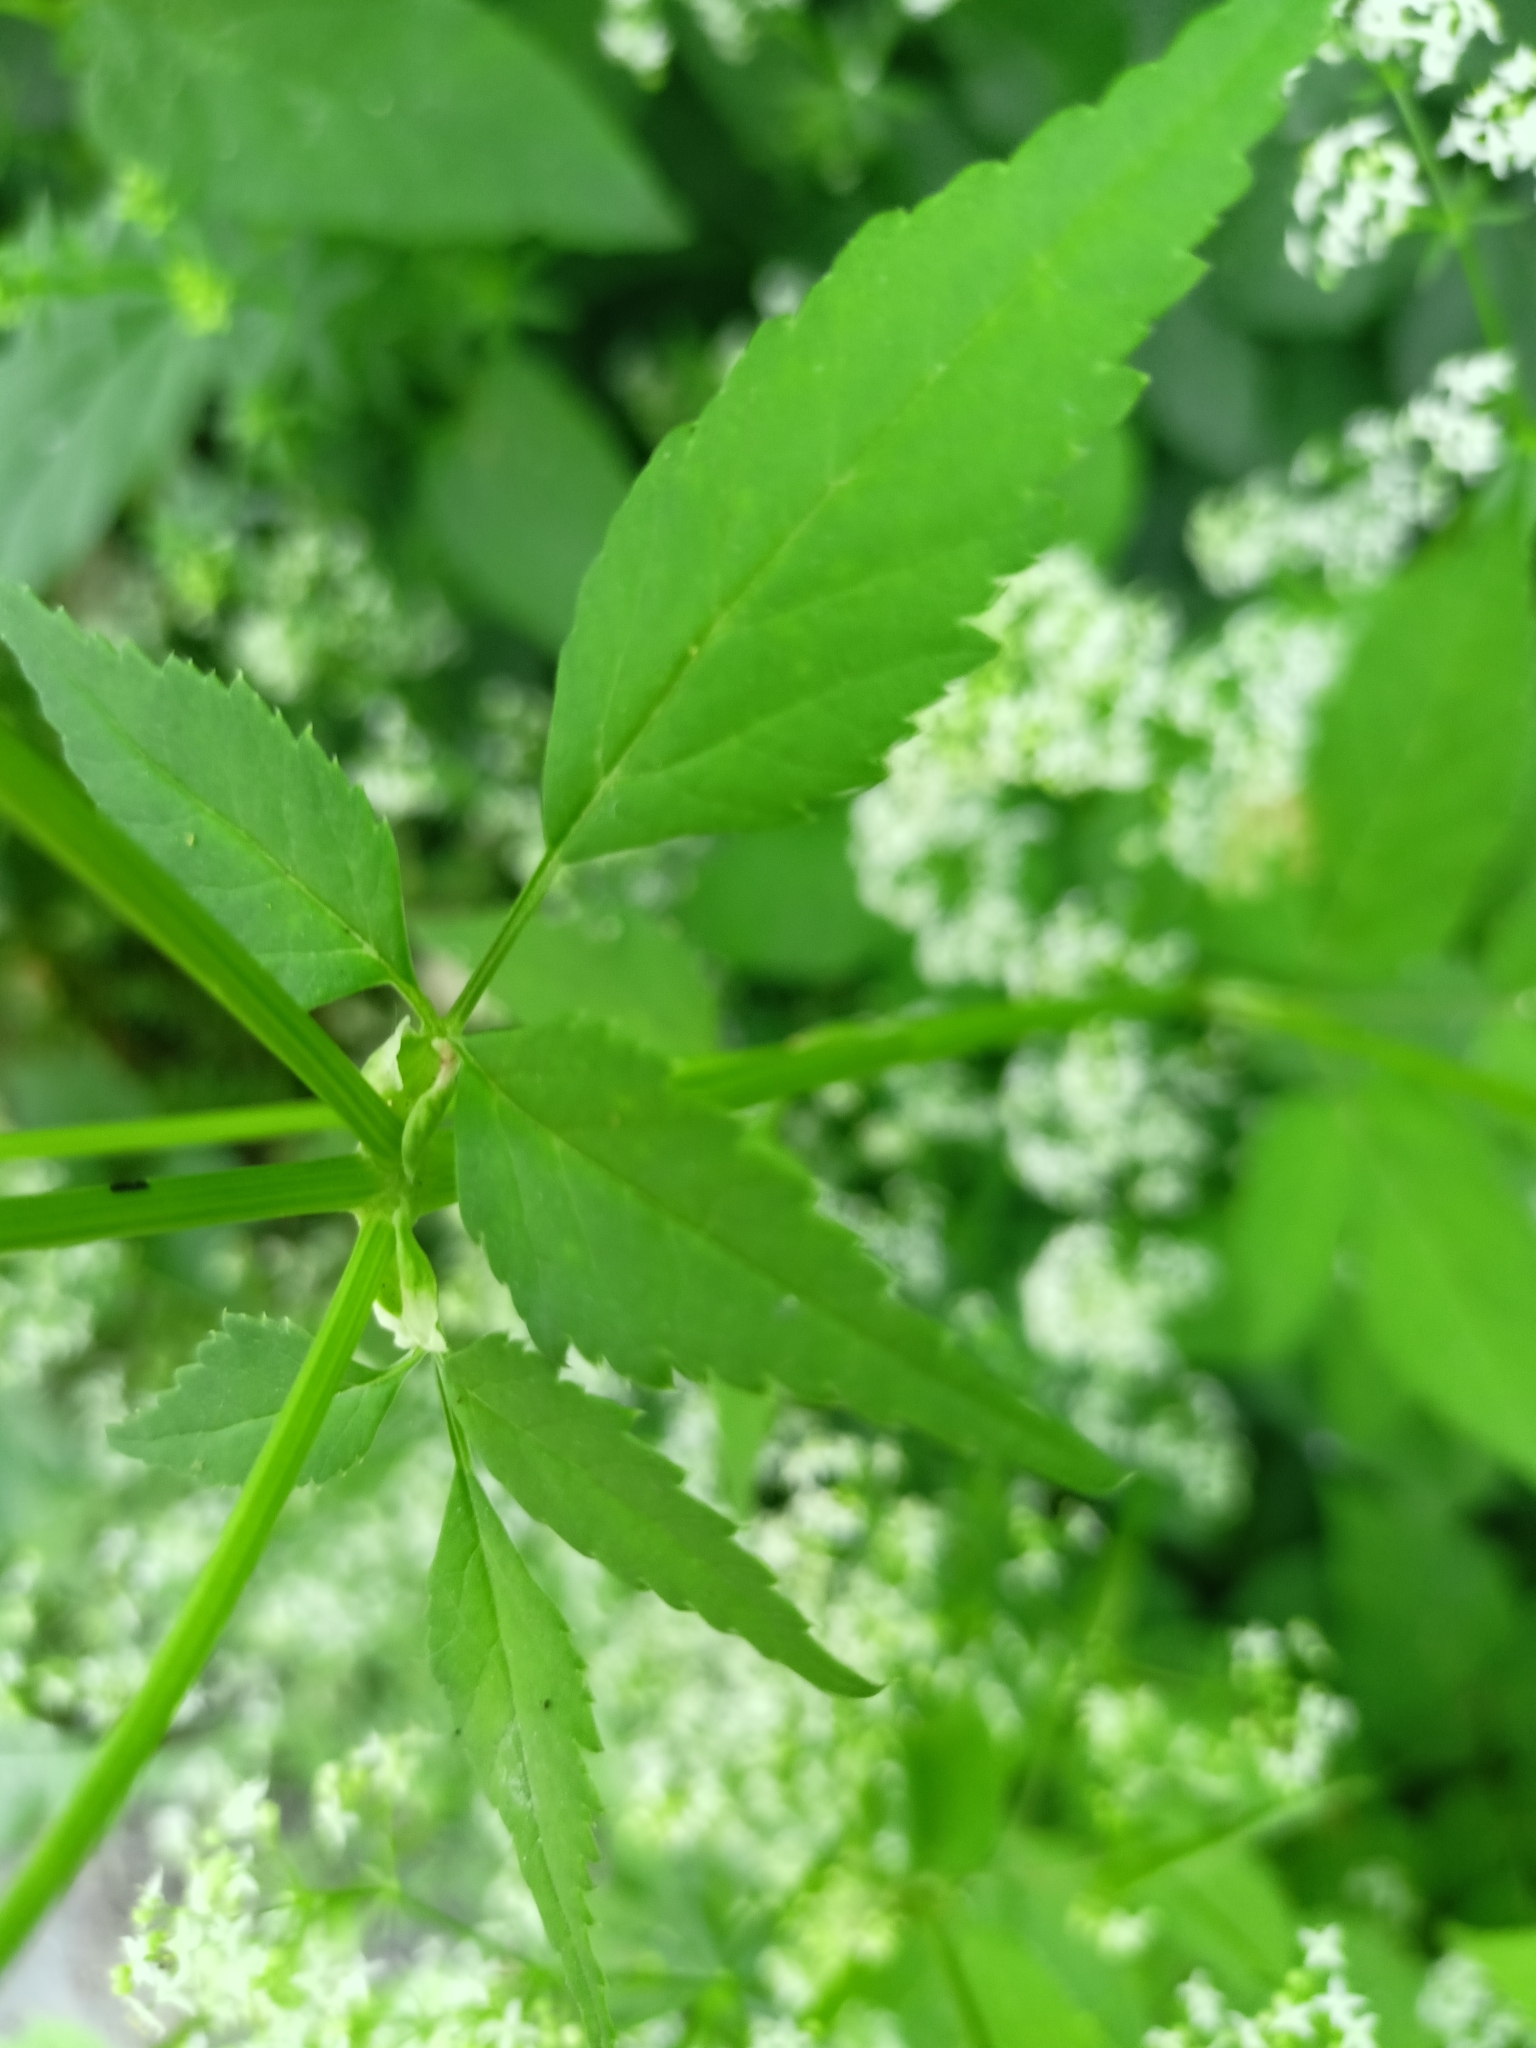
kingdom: Plantae
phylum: Tracheophyta
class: Magnoliopsida
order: Apiales
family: Apiaceae
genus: Aegopodium
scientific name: Aegopodium podagraria
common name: Ground-elder
